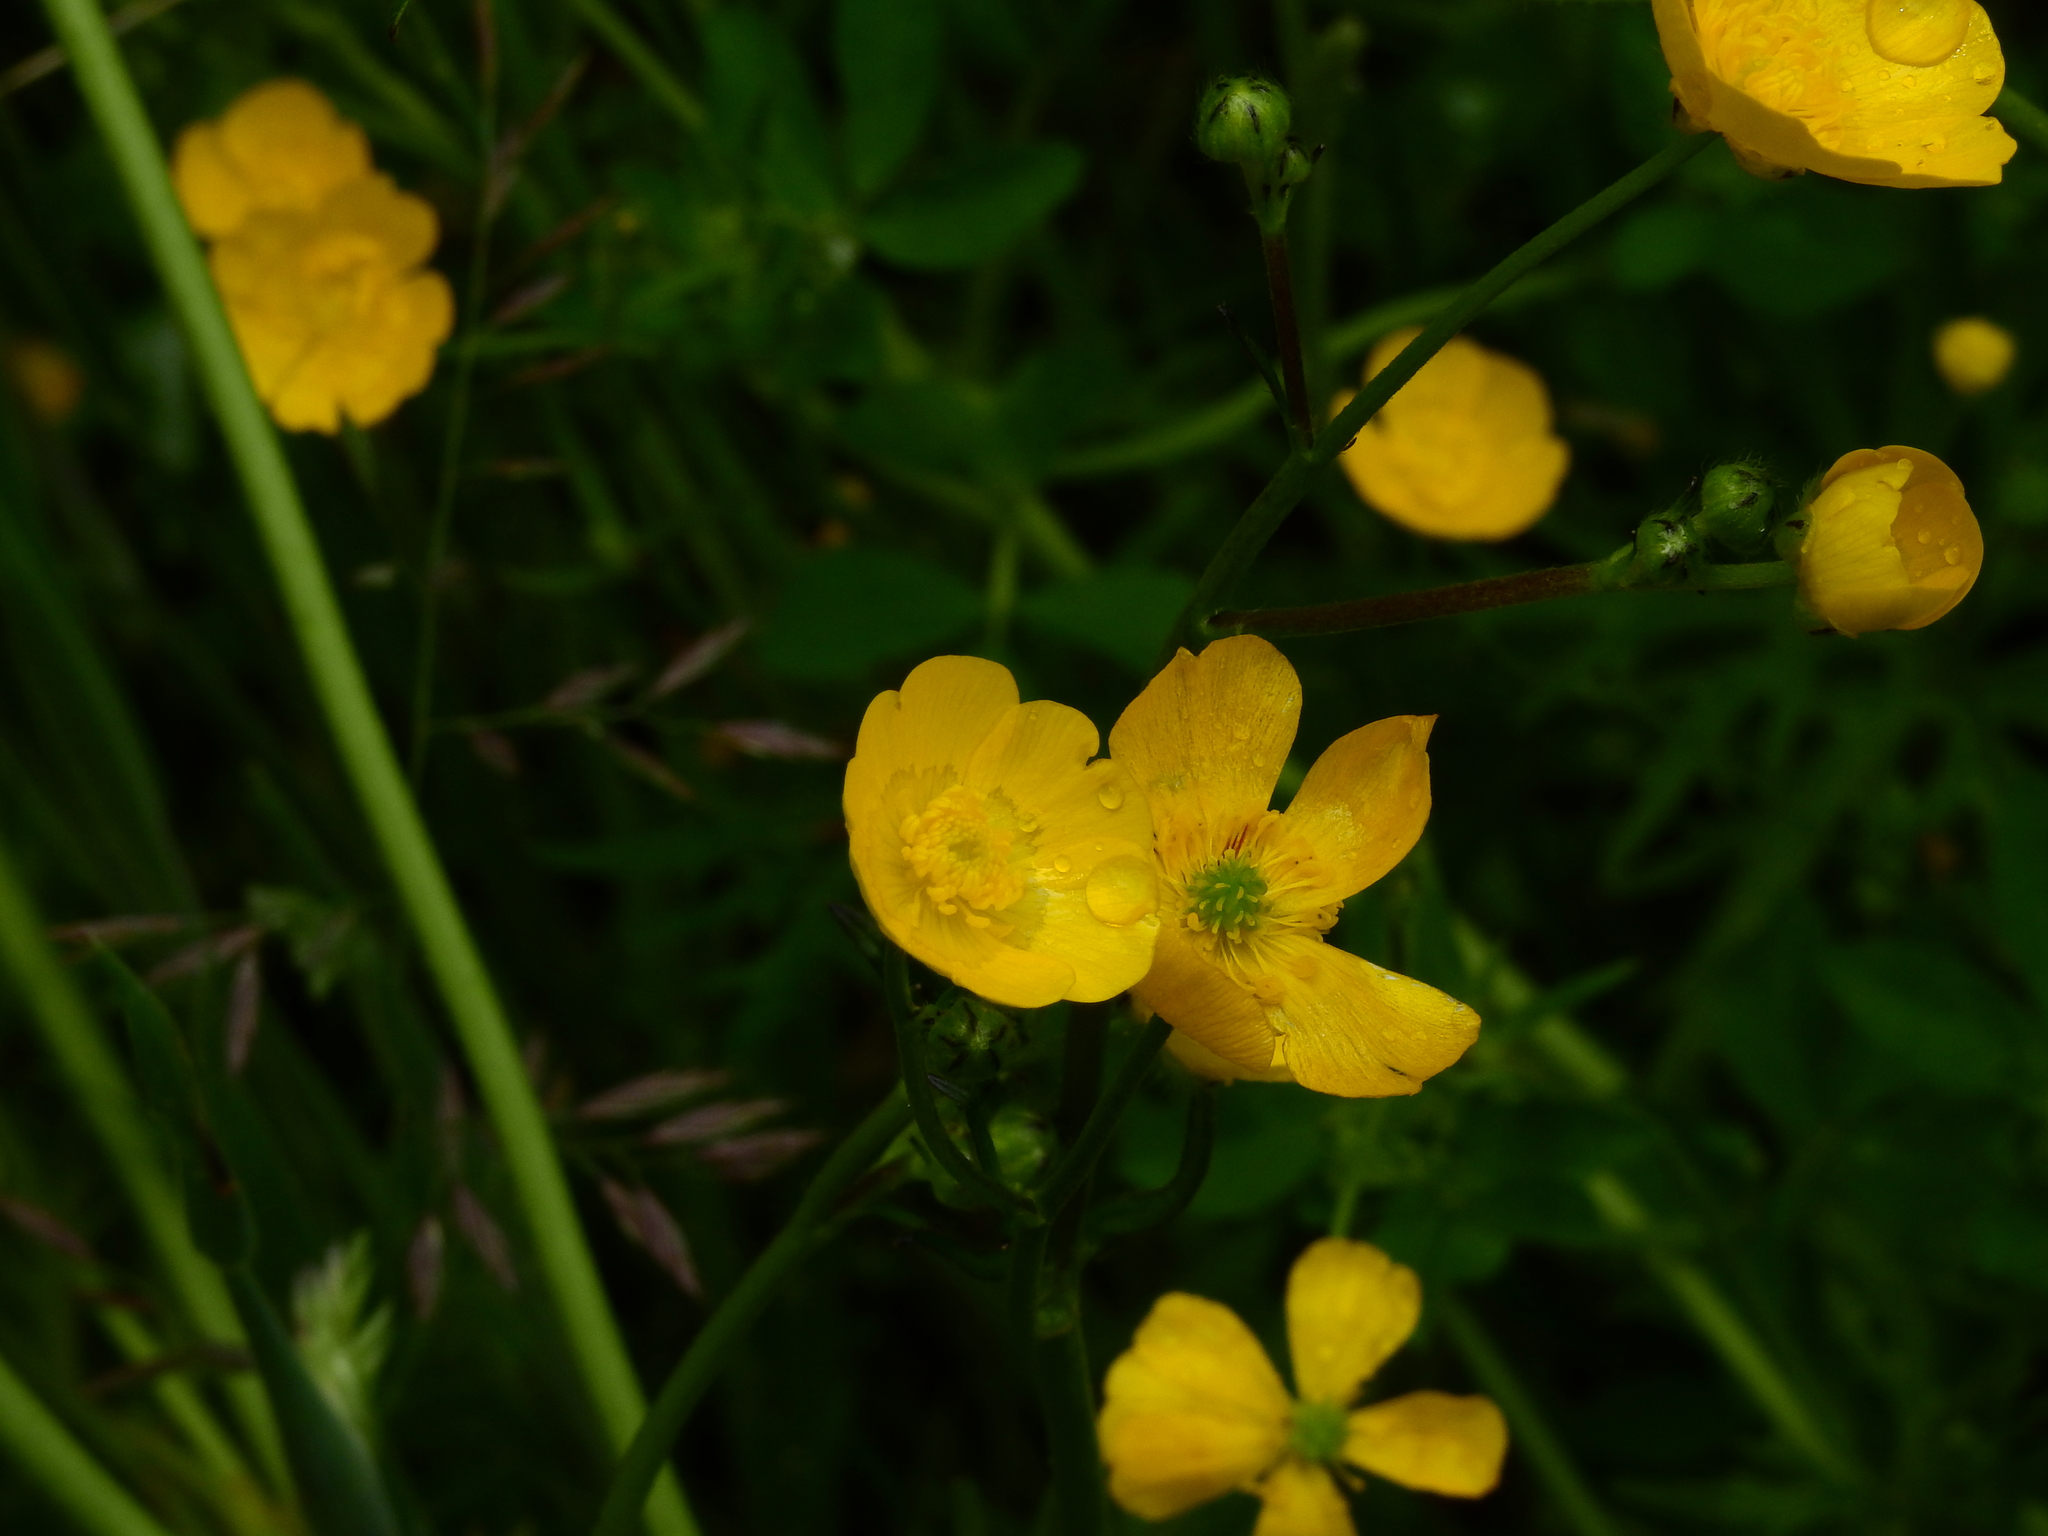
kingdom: Plantae
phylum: Tracheophyta
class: Magnoliopsida
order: Ranunculales
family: Ranunculaceae
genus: Ranunculus
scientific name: Ranunculus acris
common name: Meadow buttercup
